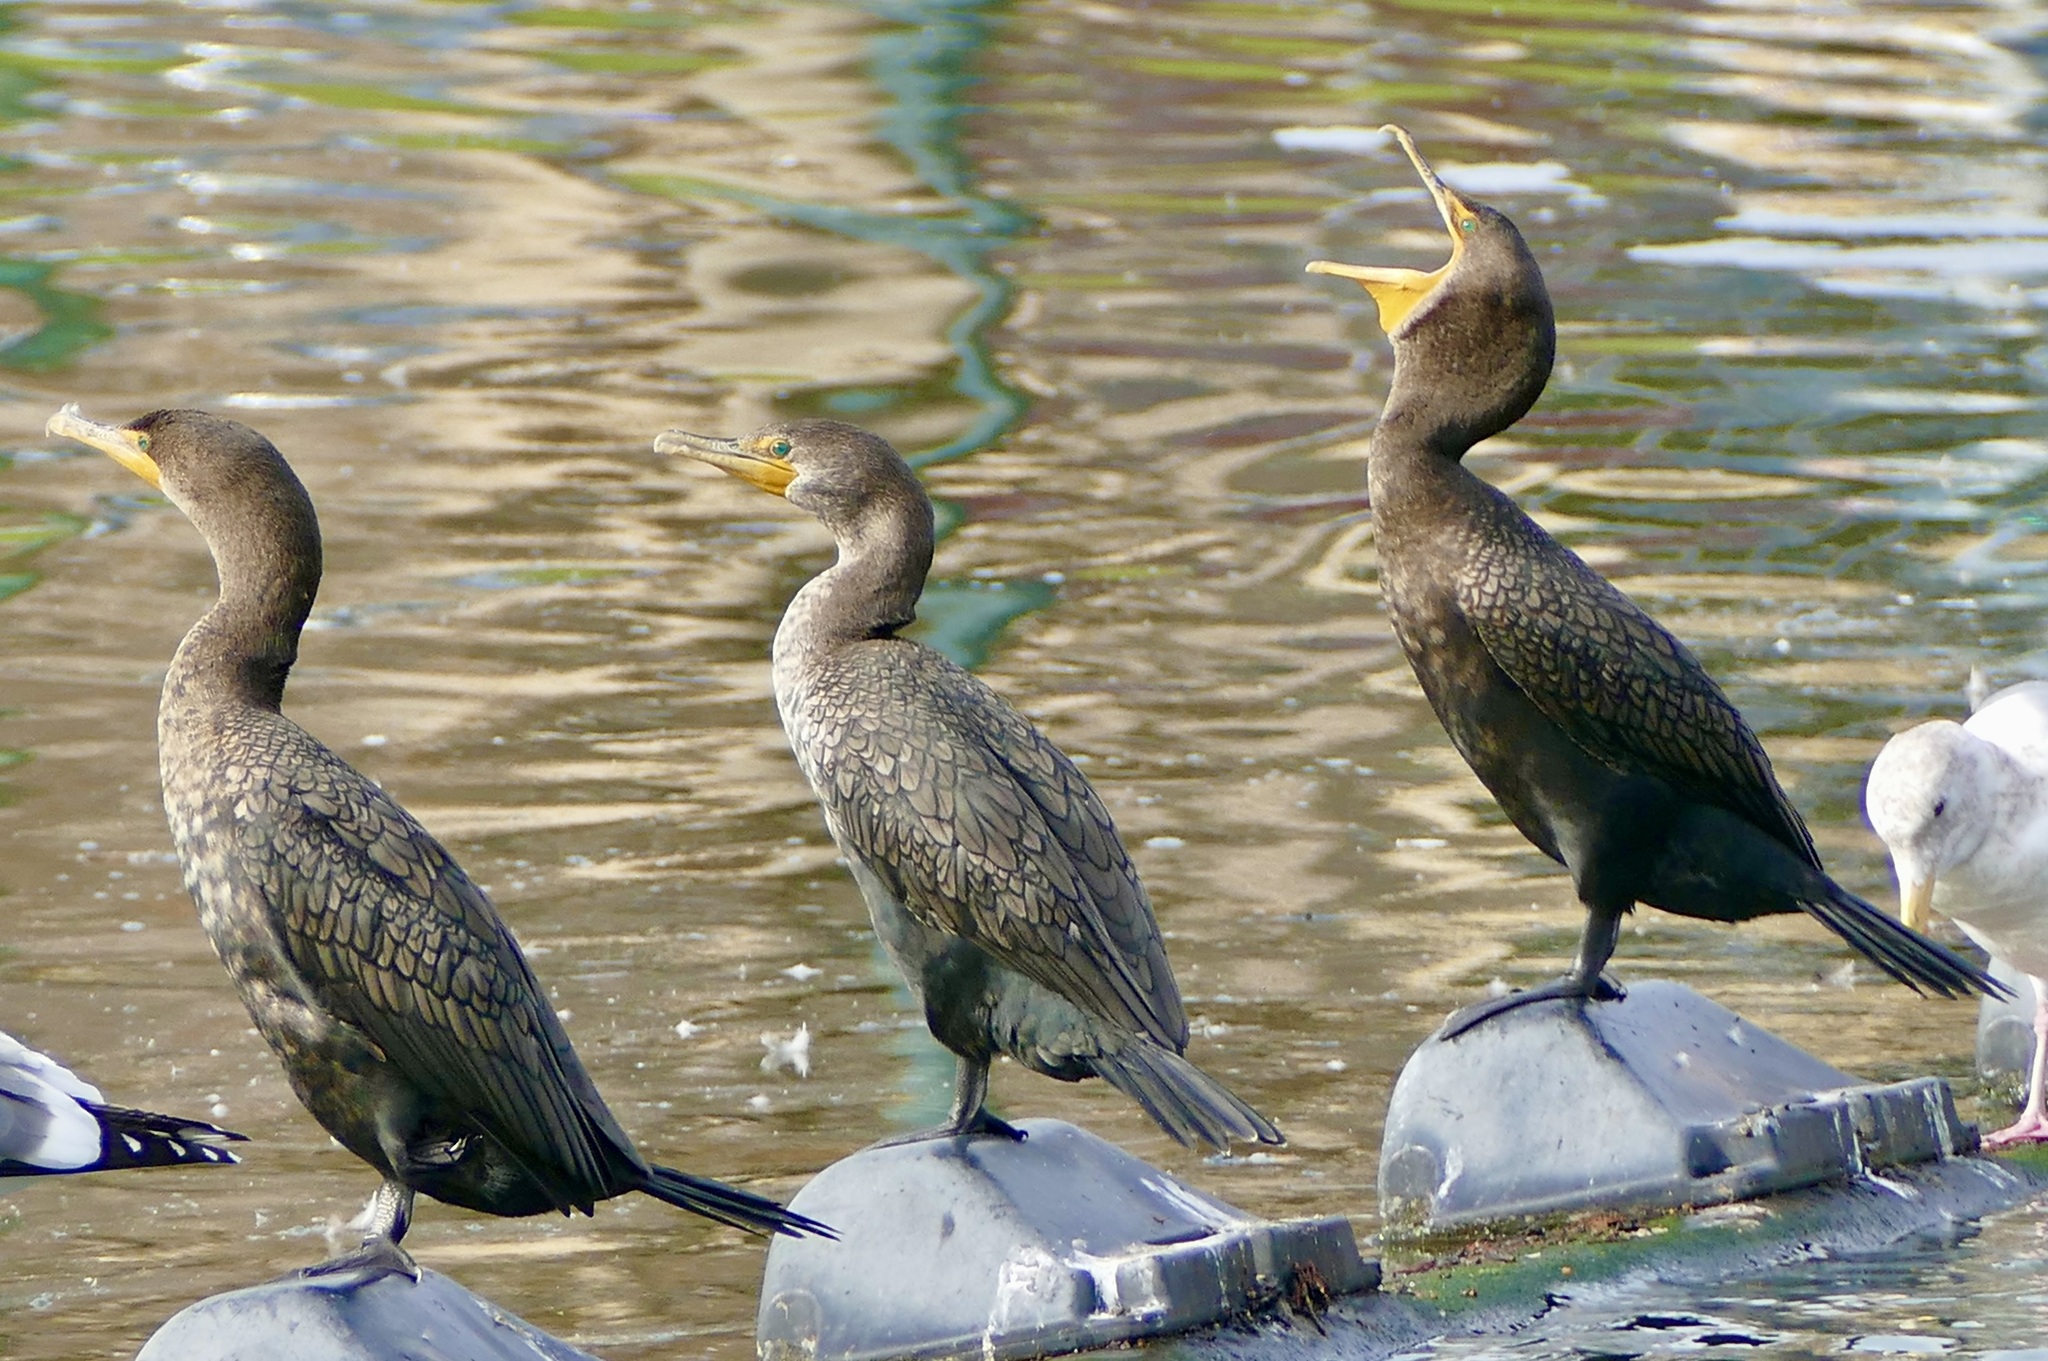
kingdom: Animalia
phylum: Chordata
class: Aves
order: Suliformes
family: Phalacrocoracidae
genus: Phalacrocorax
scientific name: Phalacrocorax auritus
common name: Double-crested cormorant
